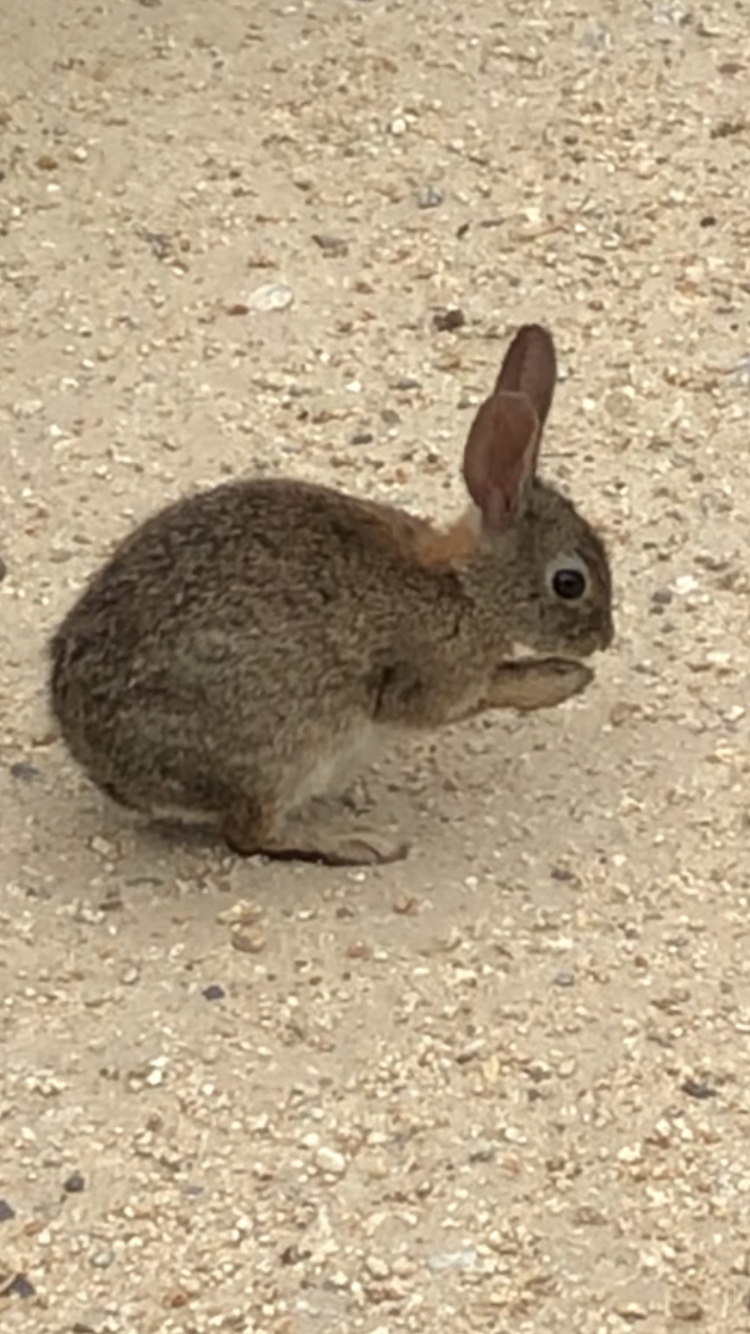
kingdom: Animalia
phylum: Chordata
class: Mammalia
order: Lagomorpha
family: Leporidae
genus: Sylvilagus
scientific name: Sylvilagus bachmani
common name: Brush rabbit
